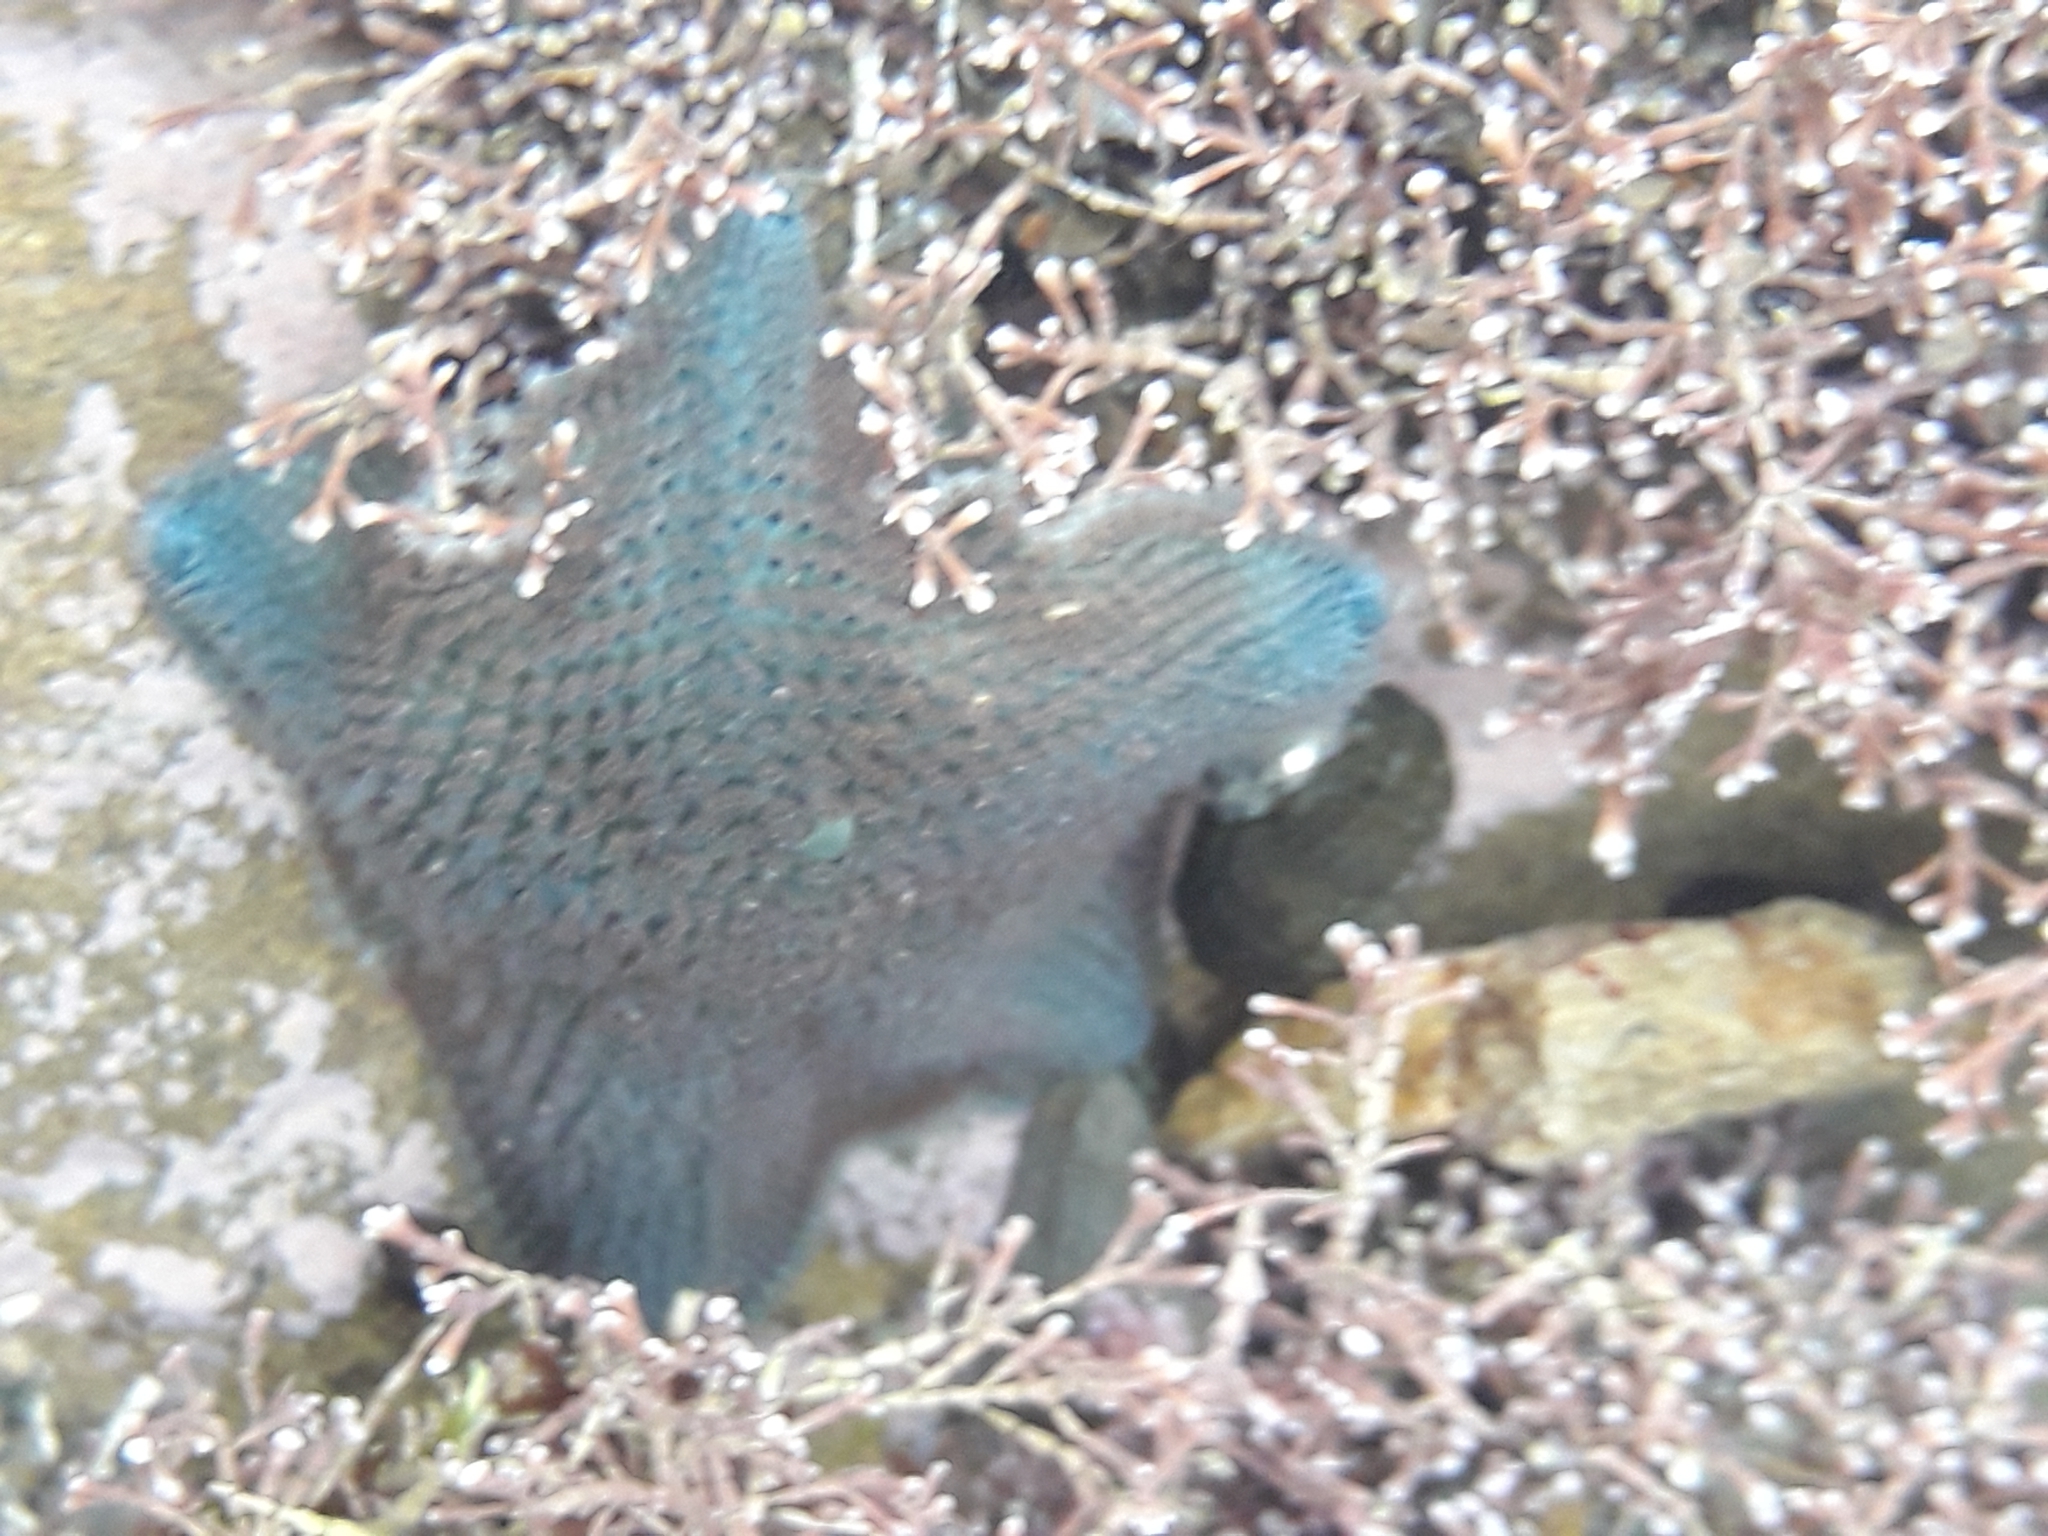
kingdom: Animalia
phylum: Echinodermata
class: Asteroidea
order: Valvatida
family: Asterinidae
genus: Patiriella
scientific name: Patiriella regularis
